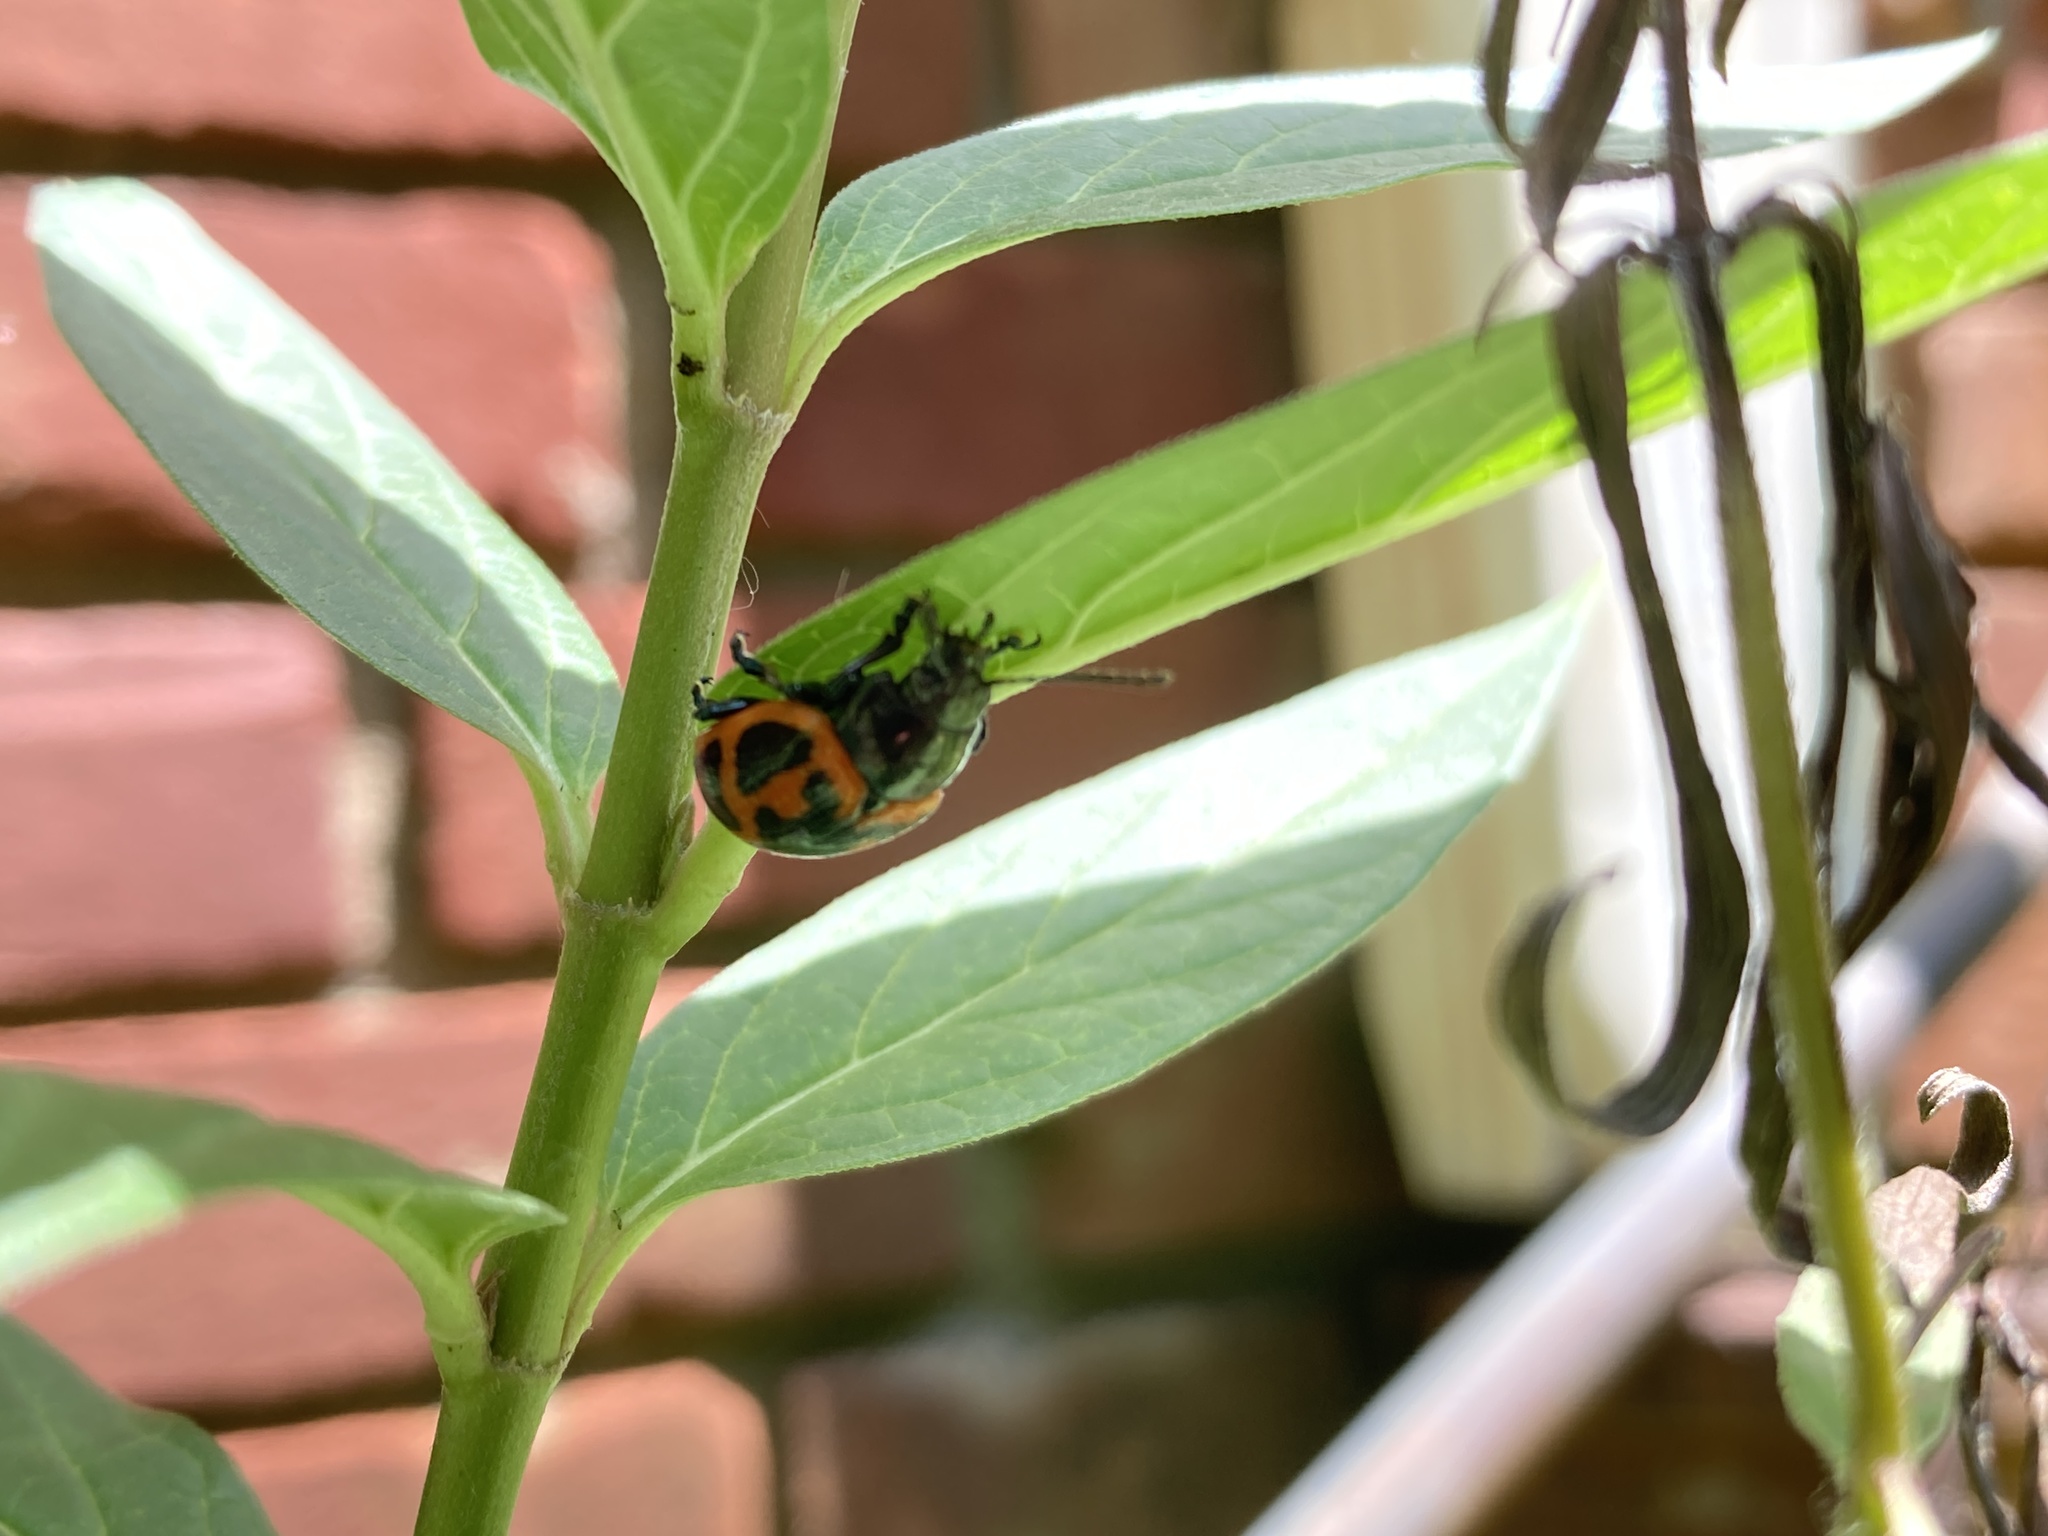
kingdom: Animalia
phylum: Arthropoda
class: Insecta
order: Coleoptera
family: Chrysomelidae
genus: Labidomera
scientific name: Labidomera clivicollis
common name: Swamp milkweed leaf beetle
